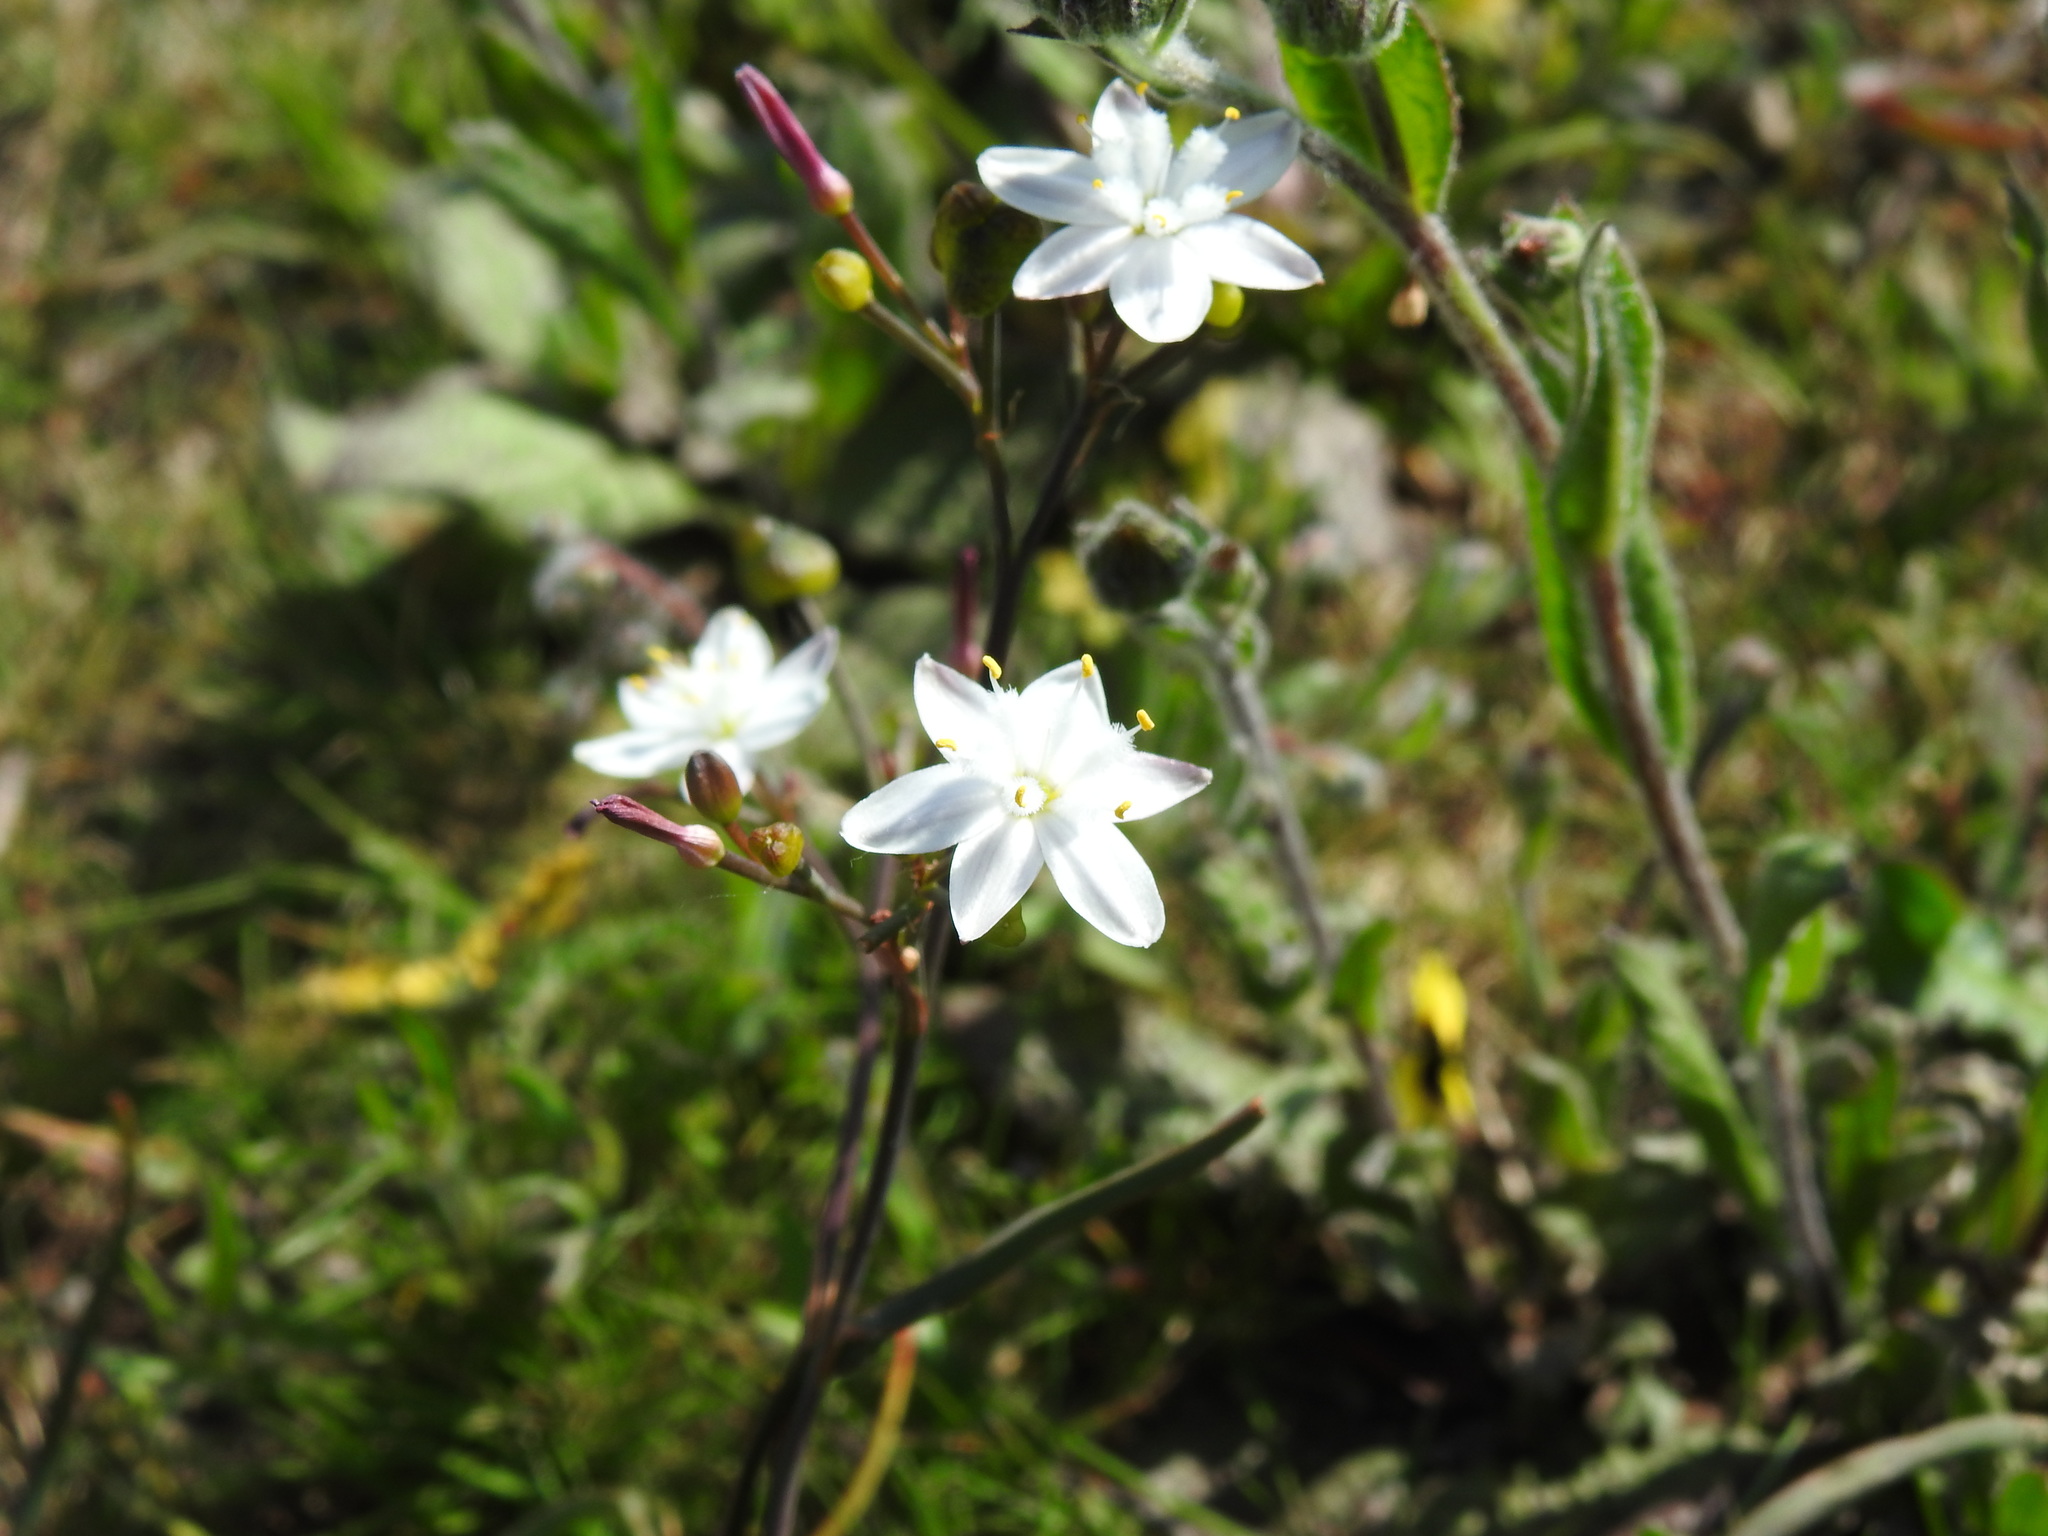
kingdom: Plantae
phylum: Tracheophyta
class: Liliopsida
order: Asparagales
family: Asphodelaceae
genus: Simethis
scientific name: Simethis mattiazzii
